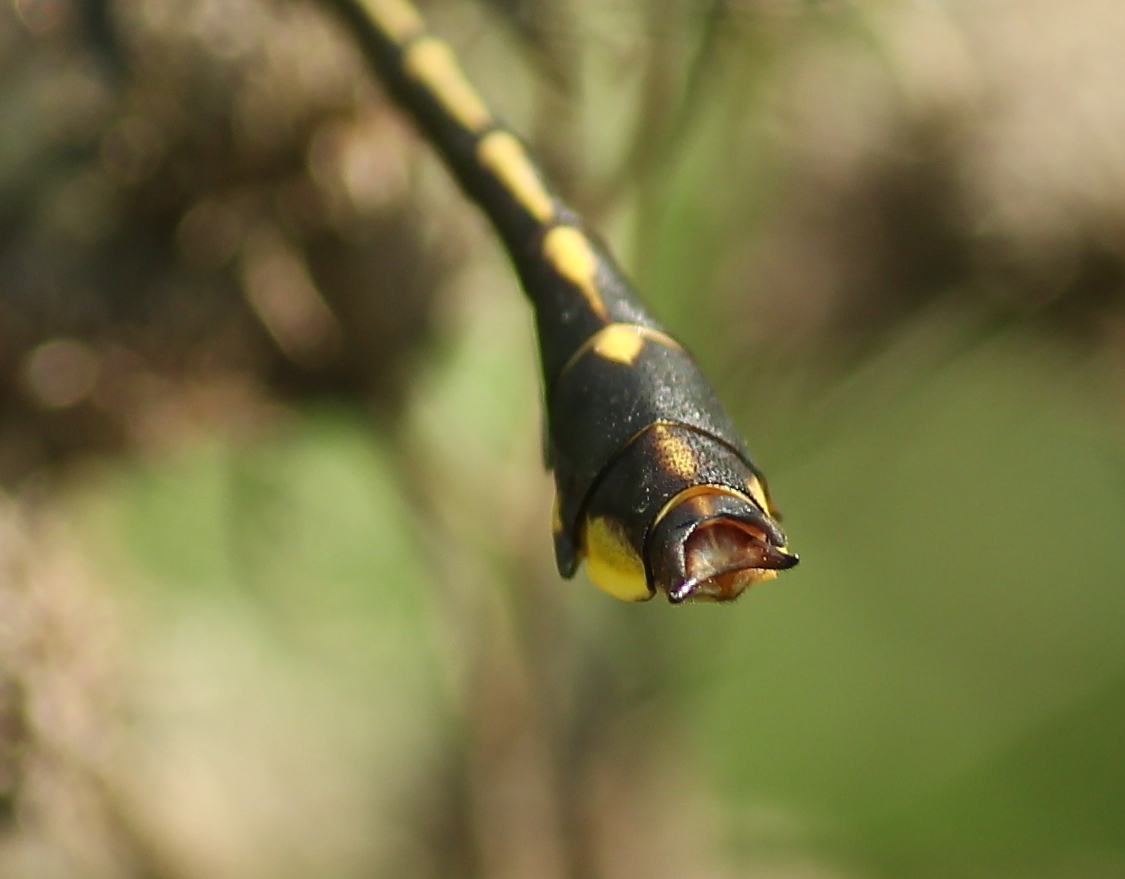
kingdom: Animalia
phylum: Arthropoda
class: Insecta
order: Odonata
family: Gomphidae
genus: Gomphurus
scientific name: Gomphurus ozarkensis
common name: Ozark clubtail
